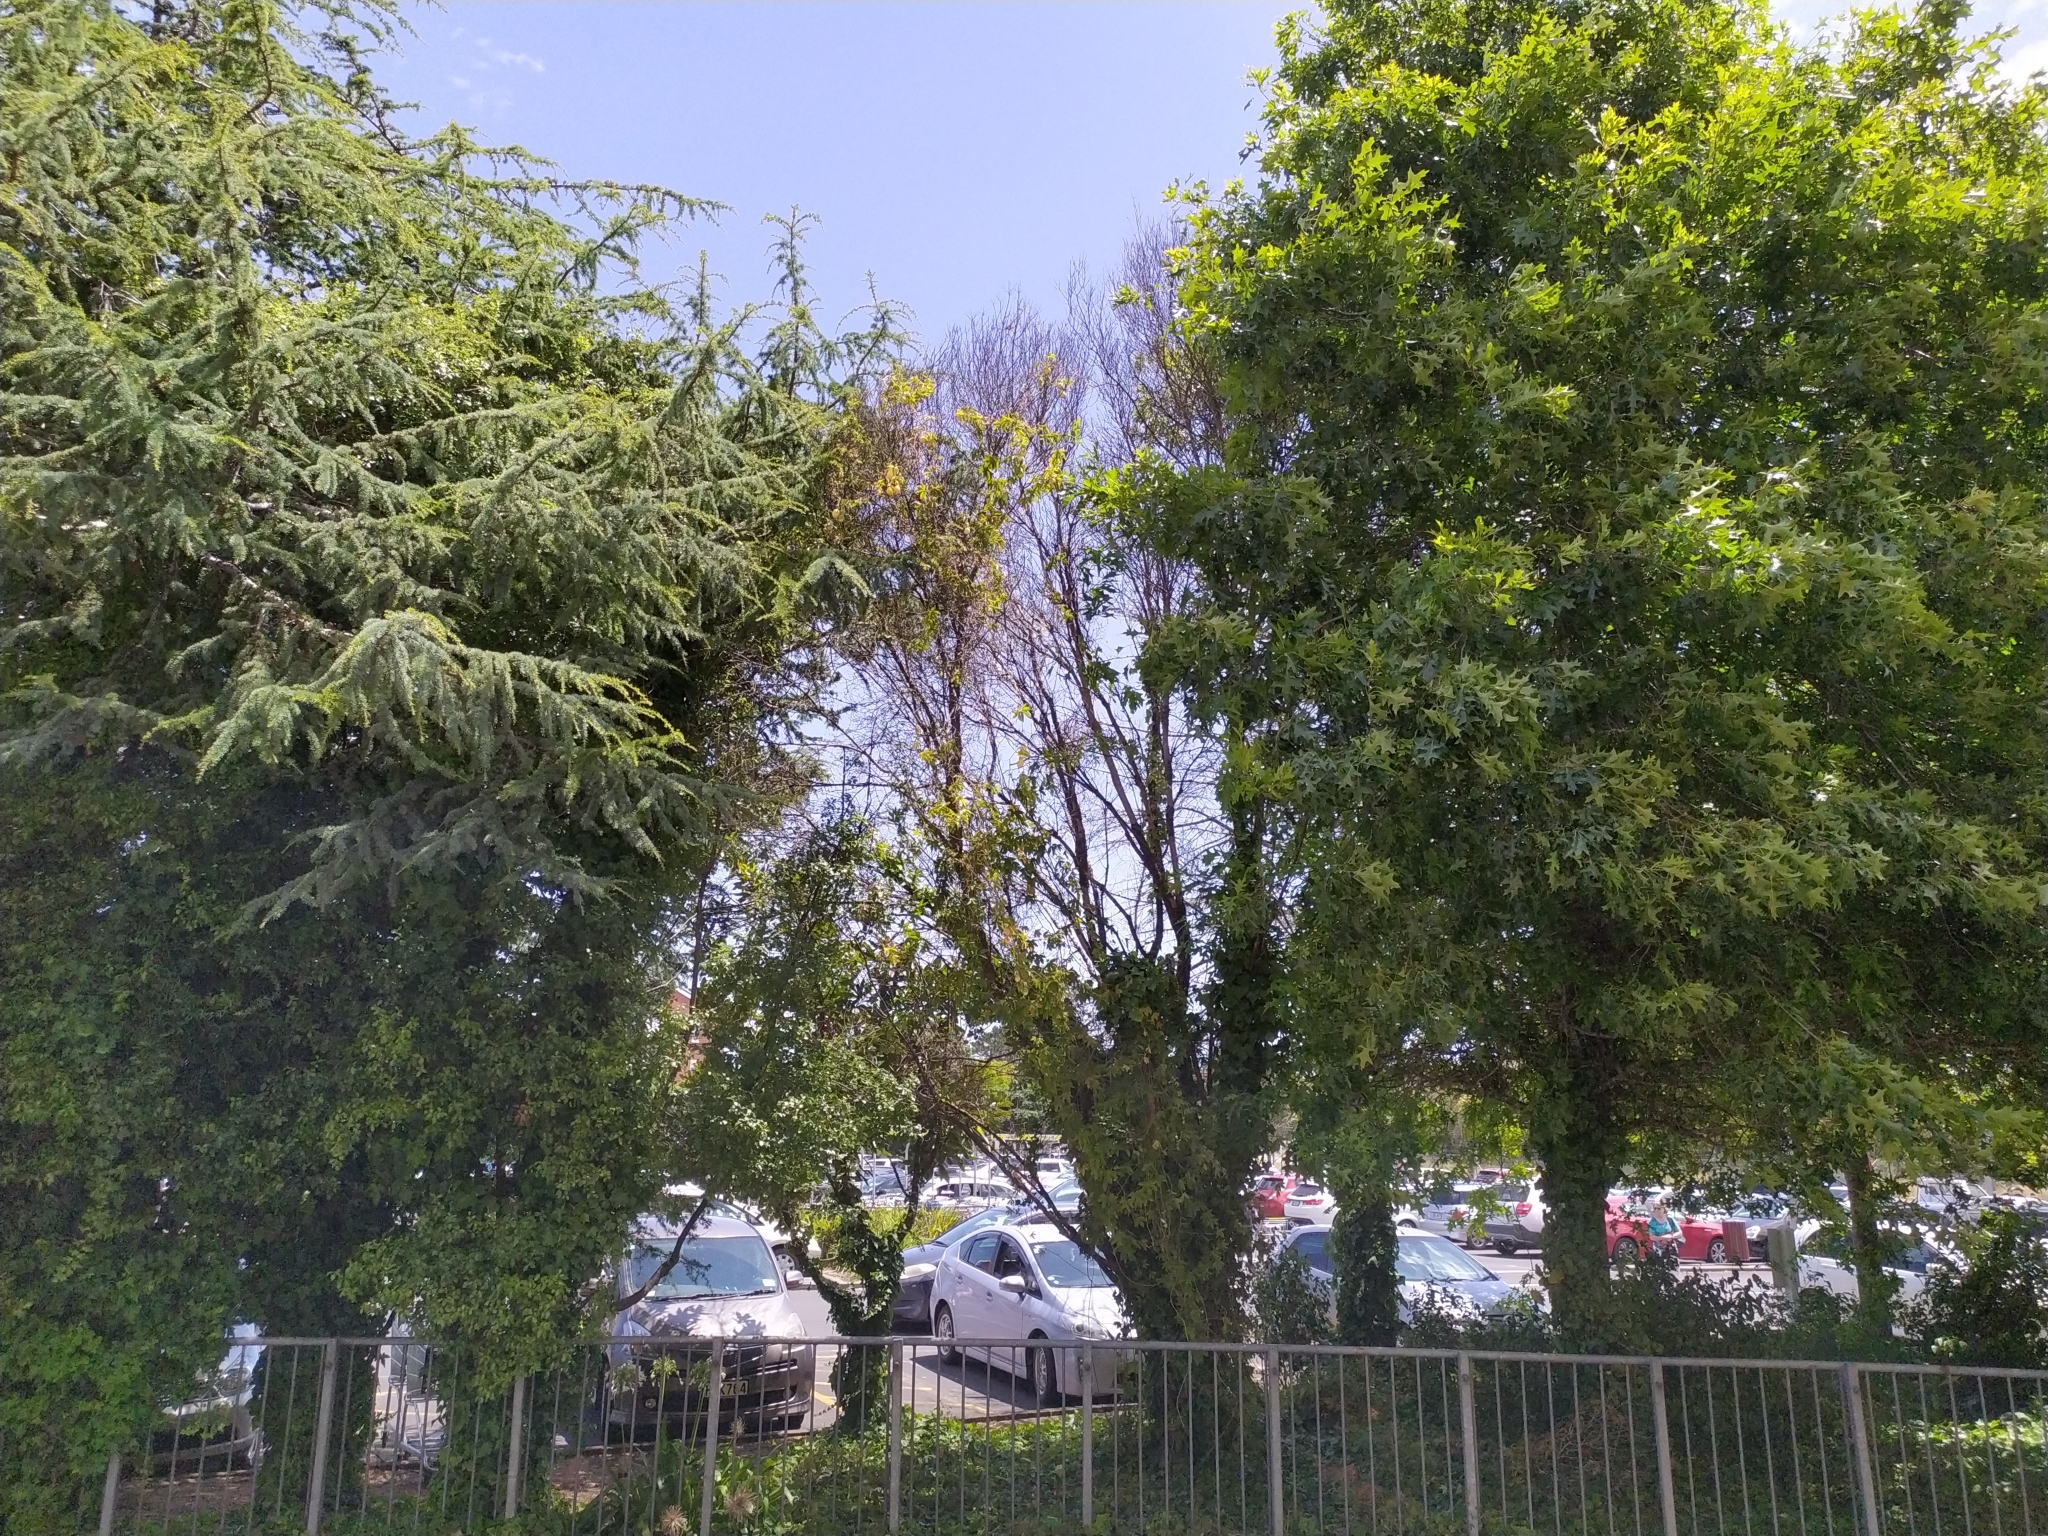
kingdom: Plantae
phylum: Tracheophyta
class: Magnoliopsida
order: Malpighiales
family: Passifloraceae
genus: Passiflora
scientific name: Passiflora caerulea
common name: Blue passionflower
